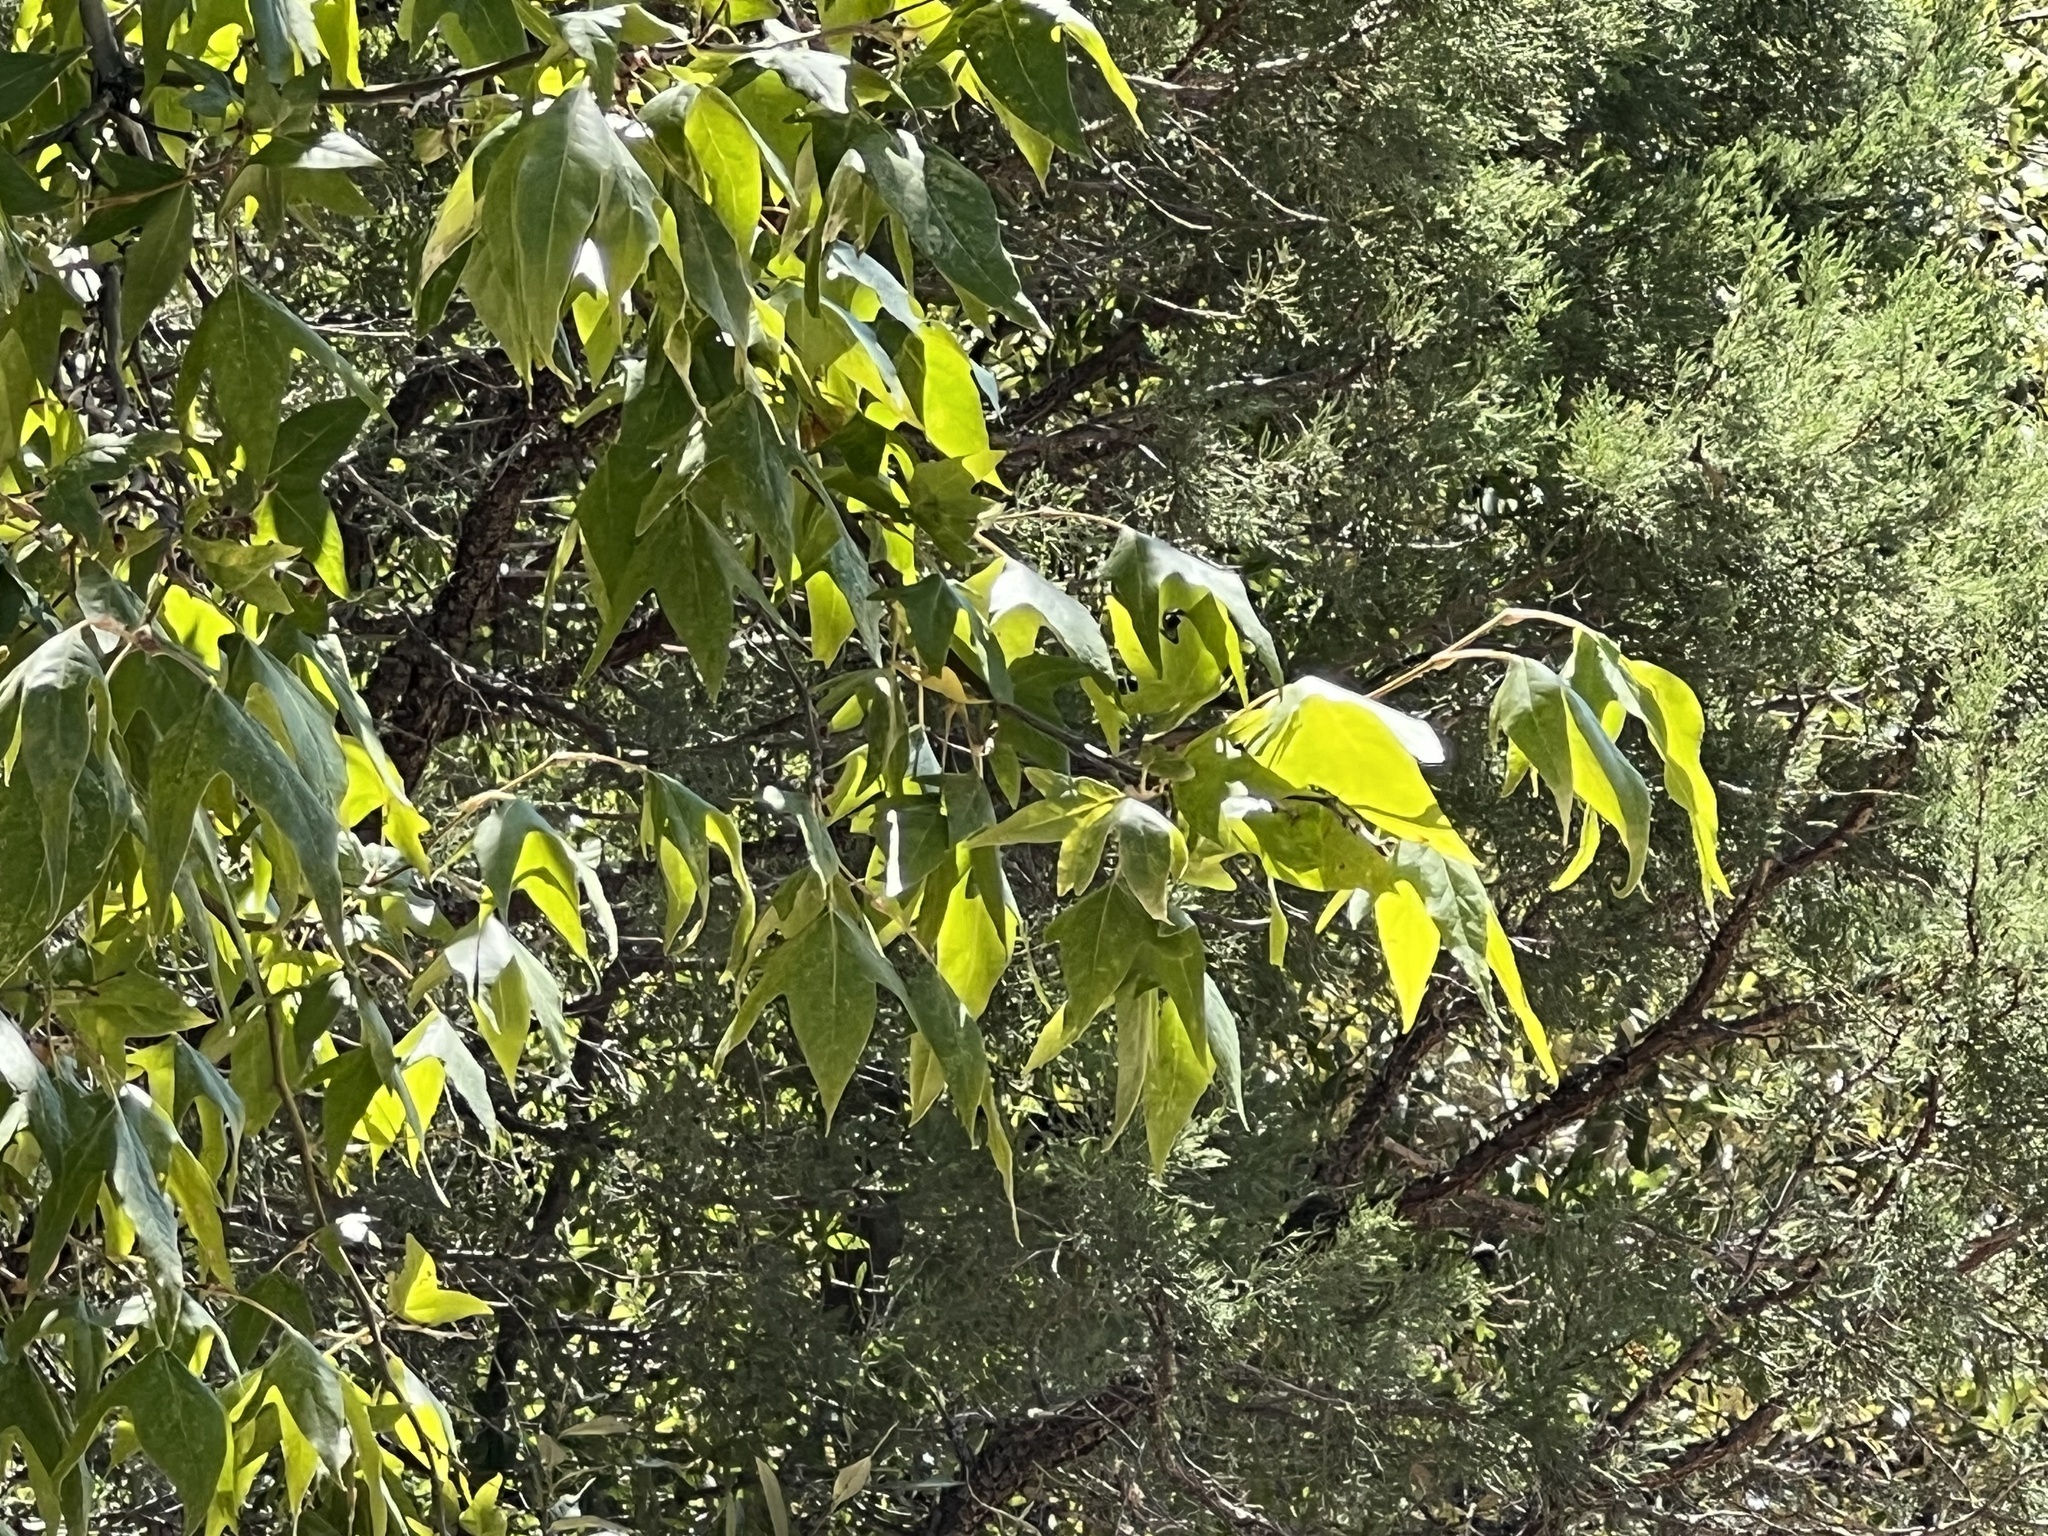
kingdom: Plantae
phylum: Tracheophyta
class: Magnoliopsida
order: Proteales
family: Platanaceae
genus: Platanus
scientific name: Platanus wrightii
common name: Arizona sycamore
